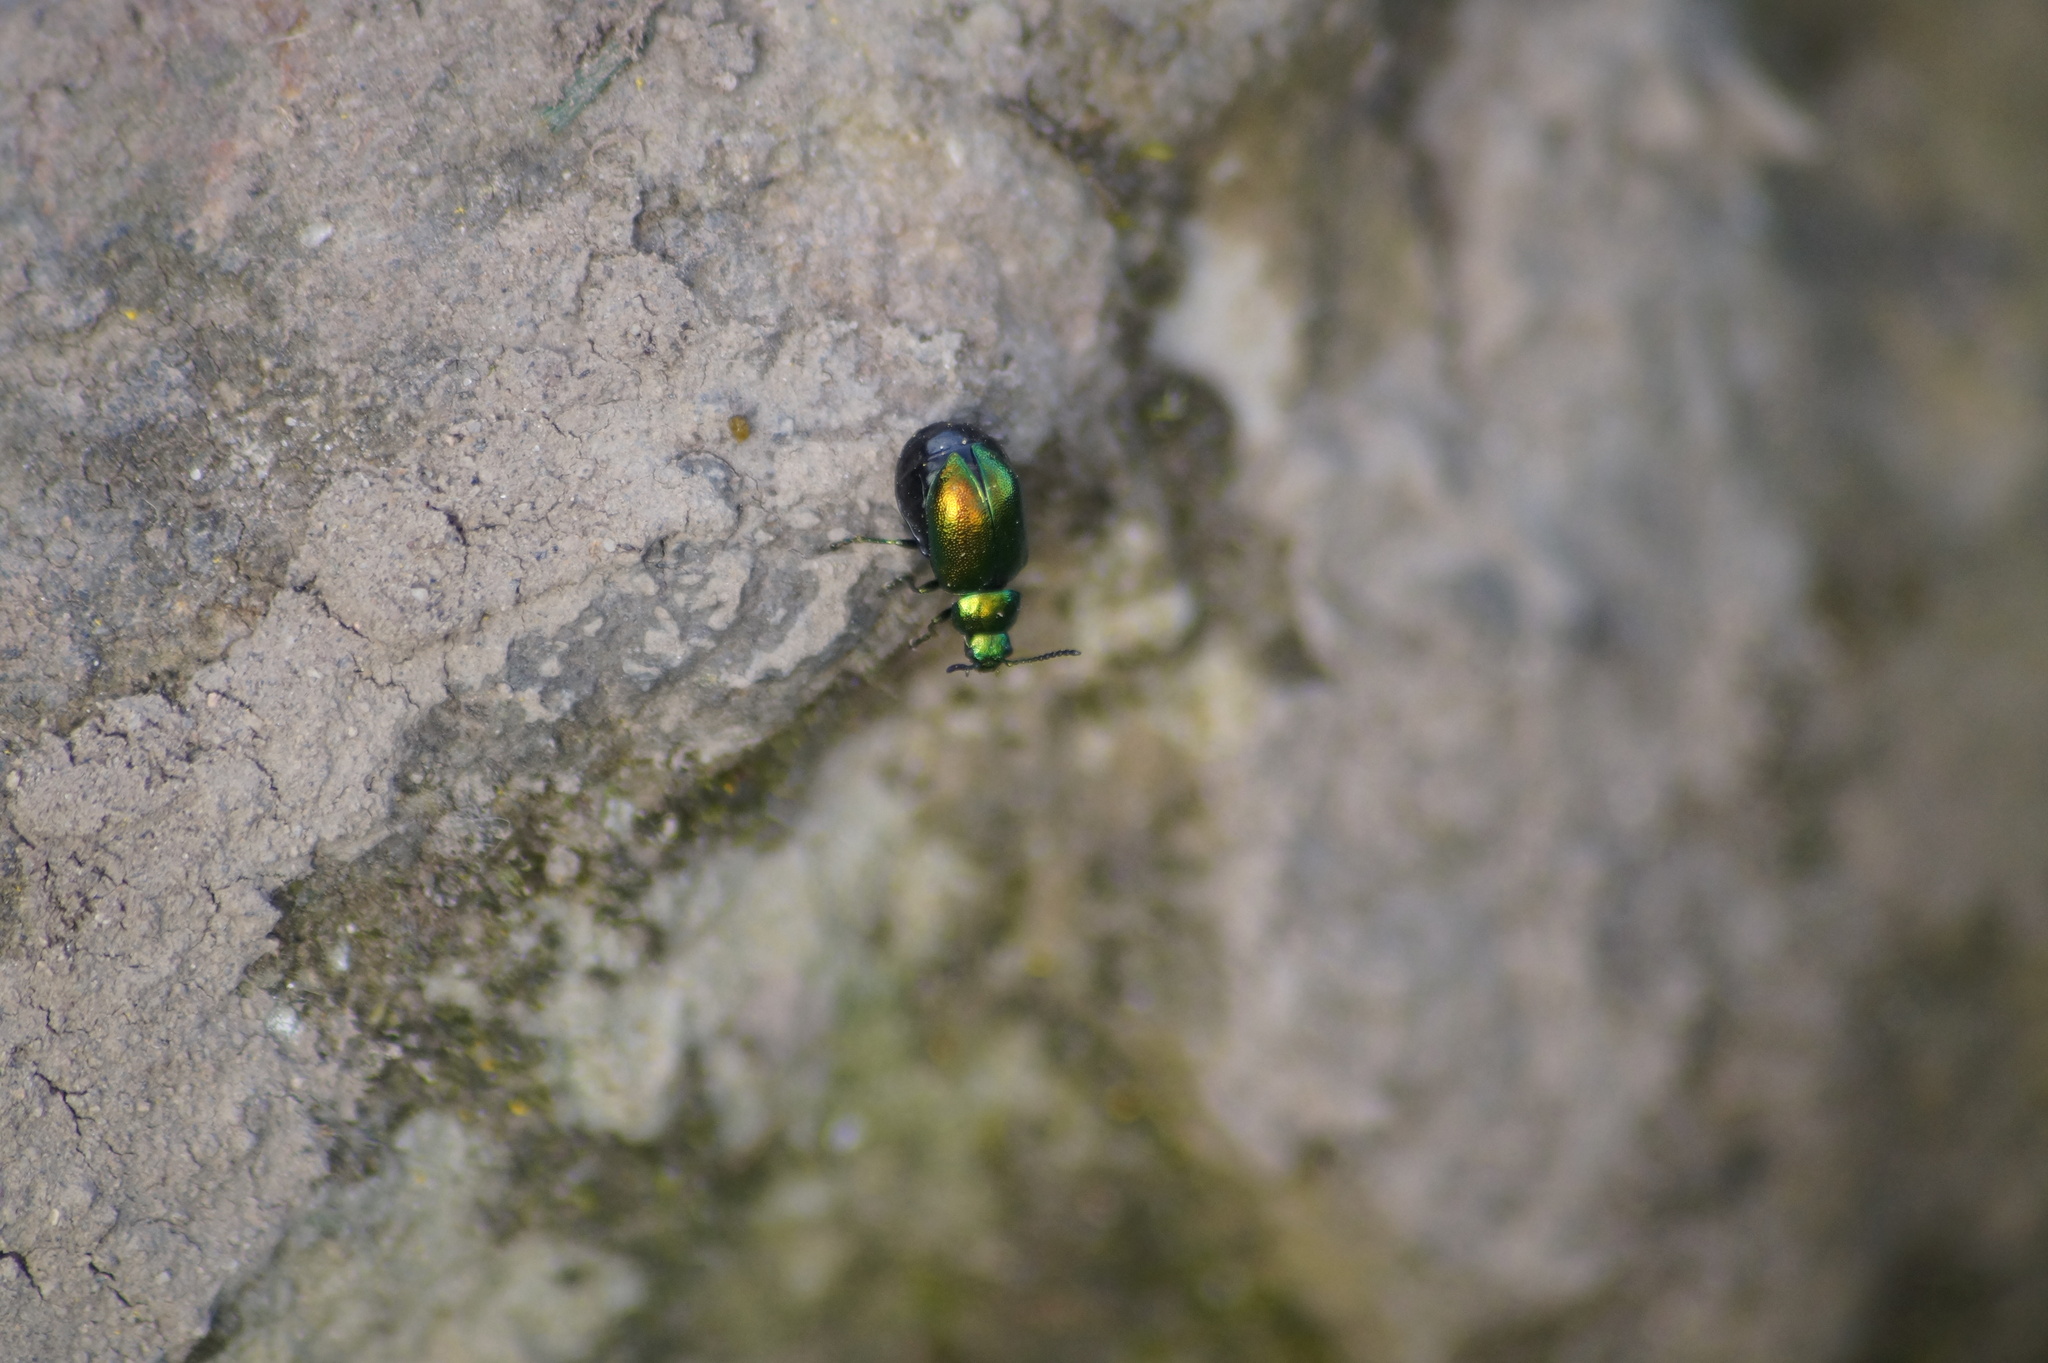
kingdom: Animalia
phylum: Arthropoda
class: Insecta
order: Coleoptera
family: Chrysomelidae
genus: Gastrophysa
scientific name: Gastrophysa viridula
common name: Green dock beetle
